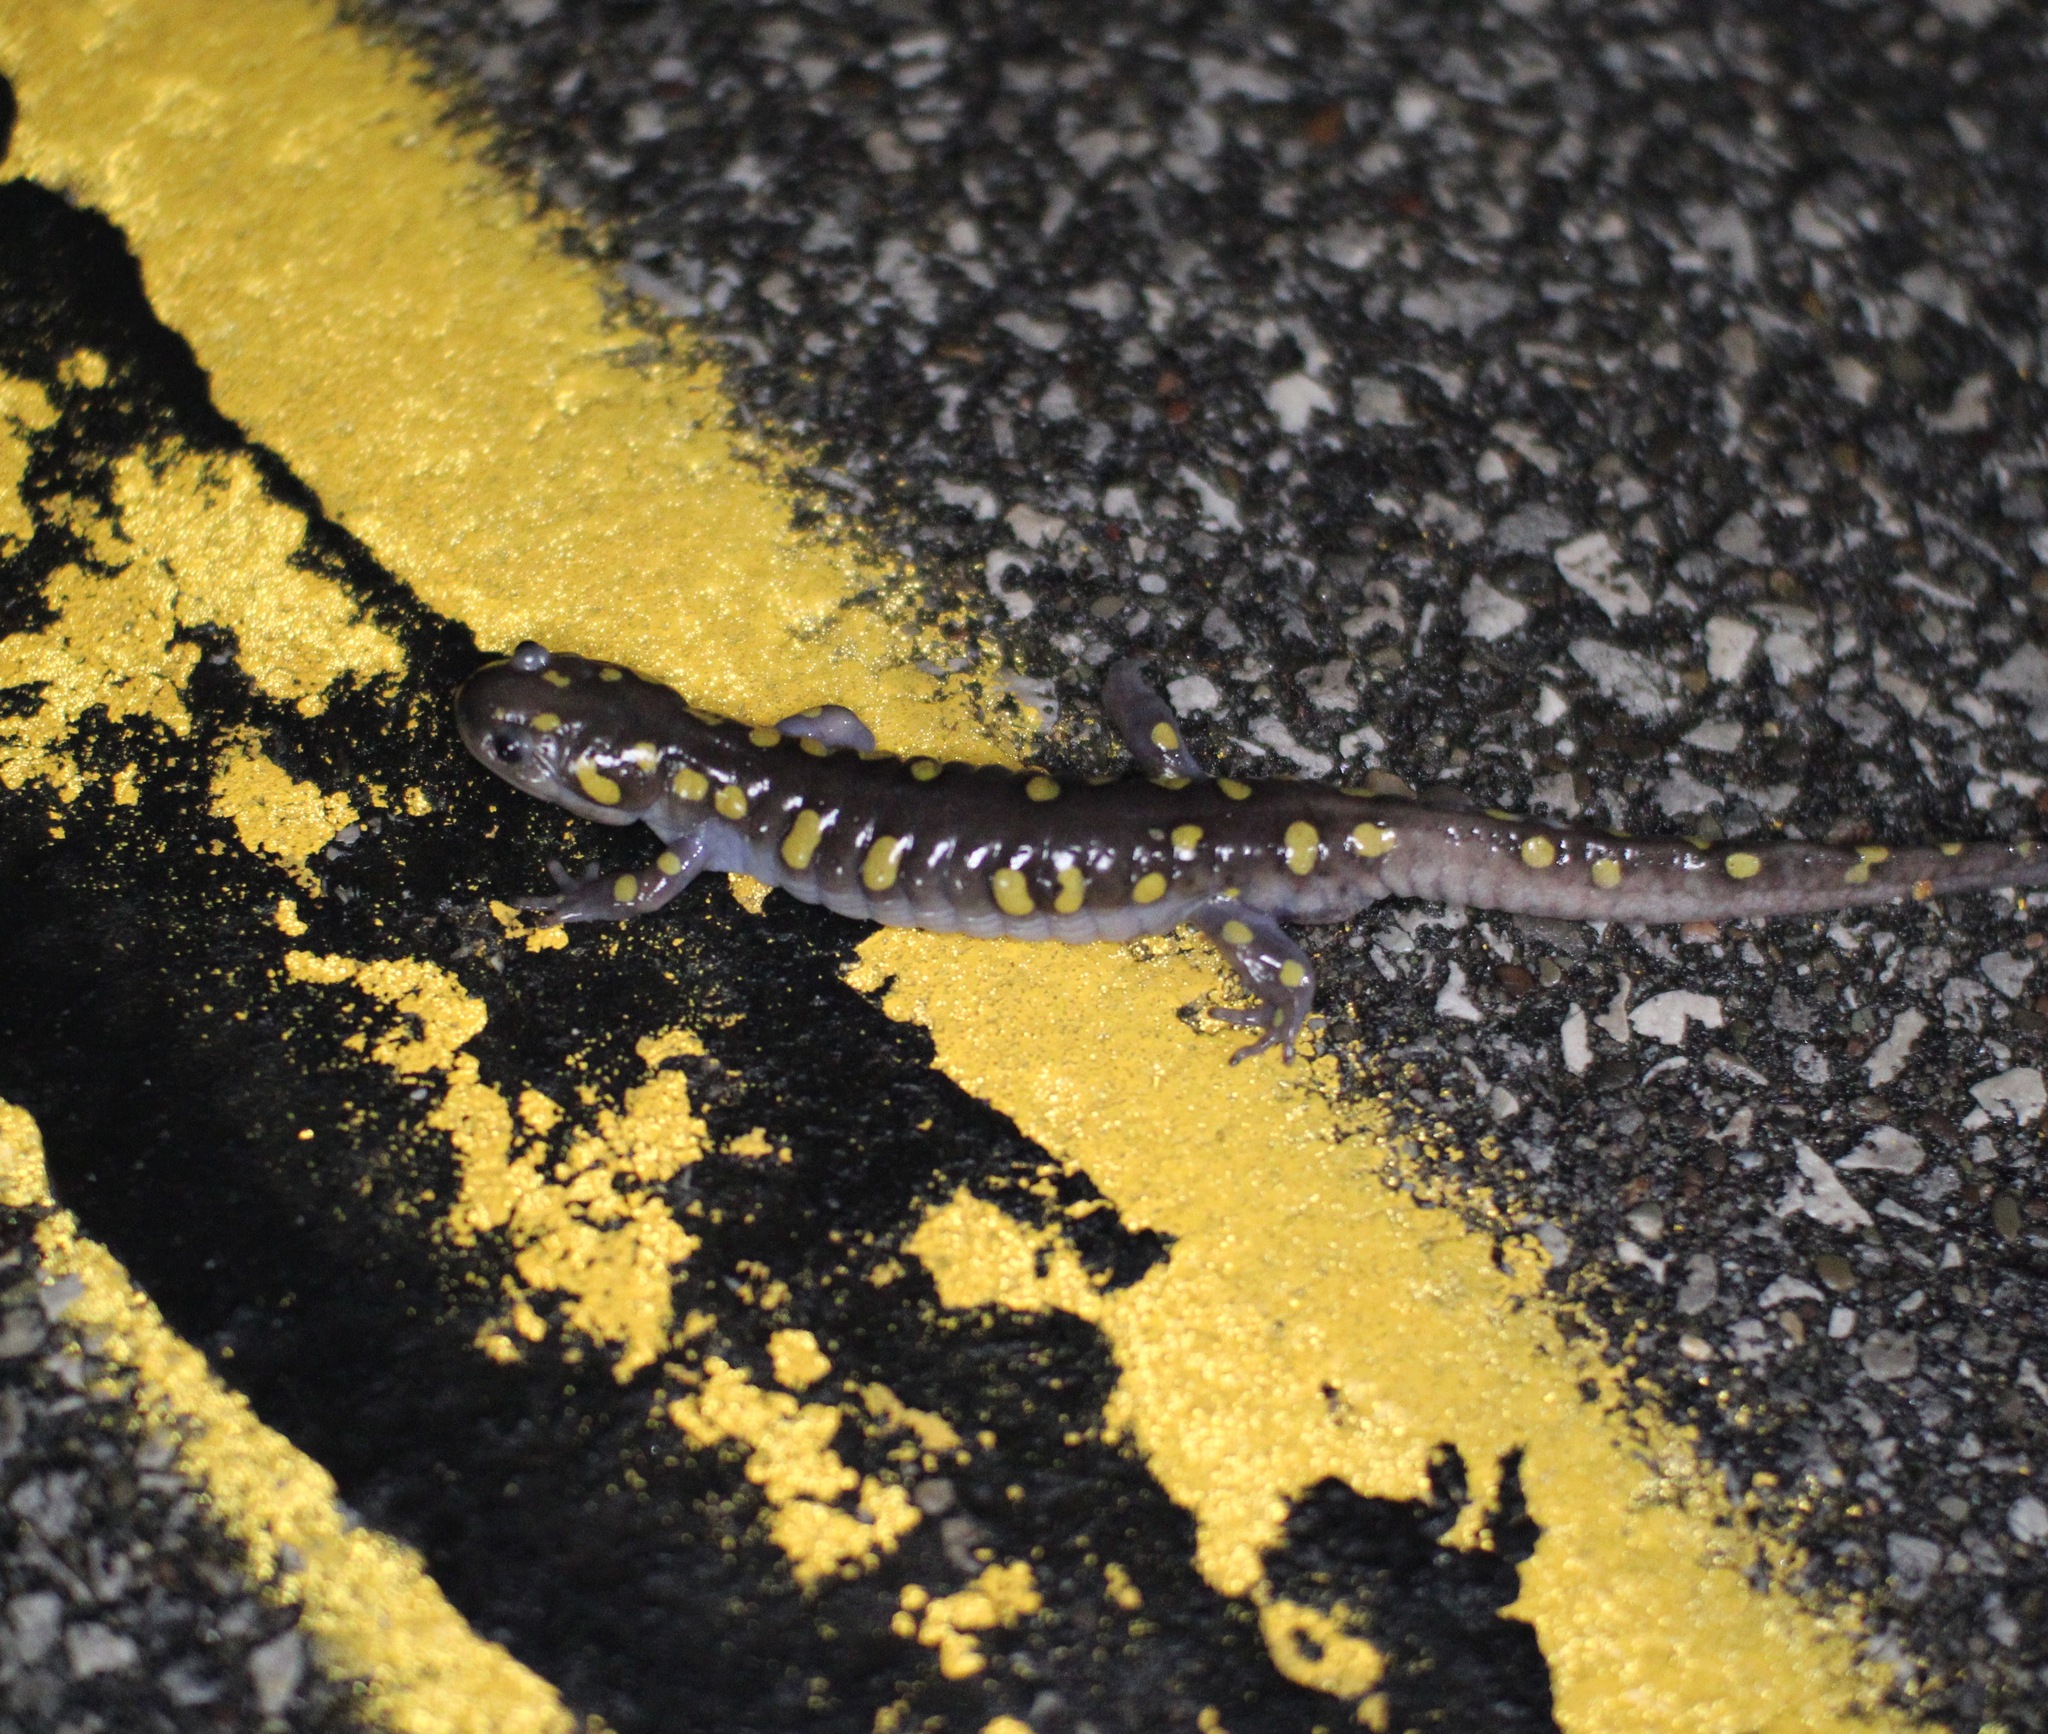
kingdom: Animalia
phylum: Chordata
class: Amphibia
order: Caudata
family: Ambystomatidae
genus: Ambystoma
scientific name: Ambystoma maculatum
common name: Spotted salamander
